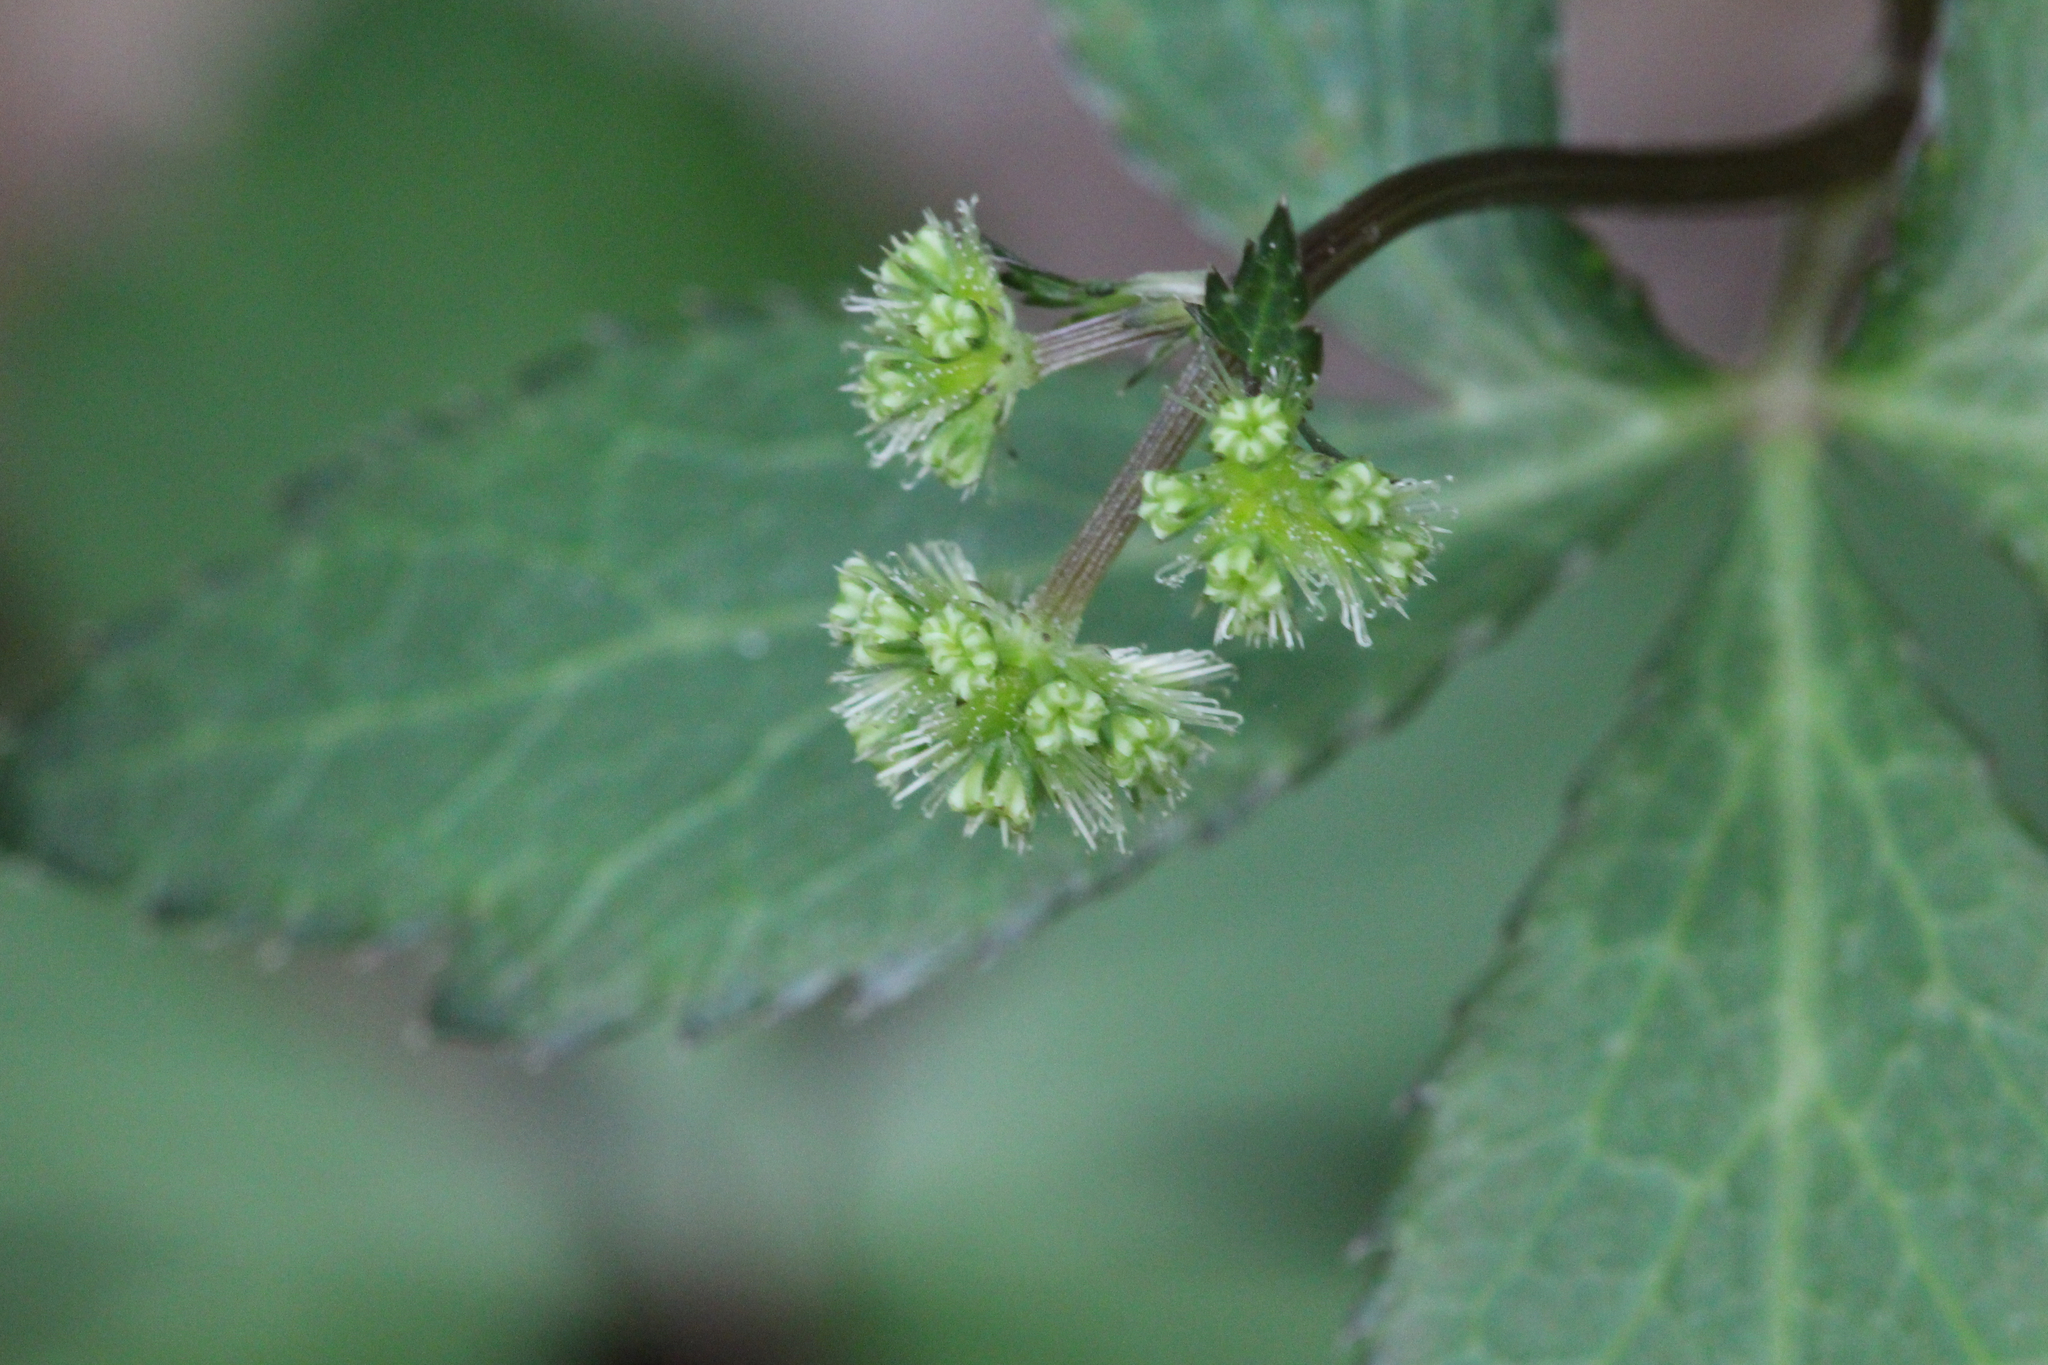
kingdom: Plantae
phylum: Tracheophyta
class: Magnoliopsida
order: Apiales
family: Apiaceae
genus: Sanicula
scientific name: Sanicula smallii
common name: Small's black snakeroot
